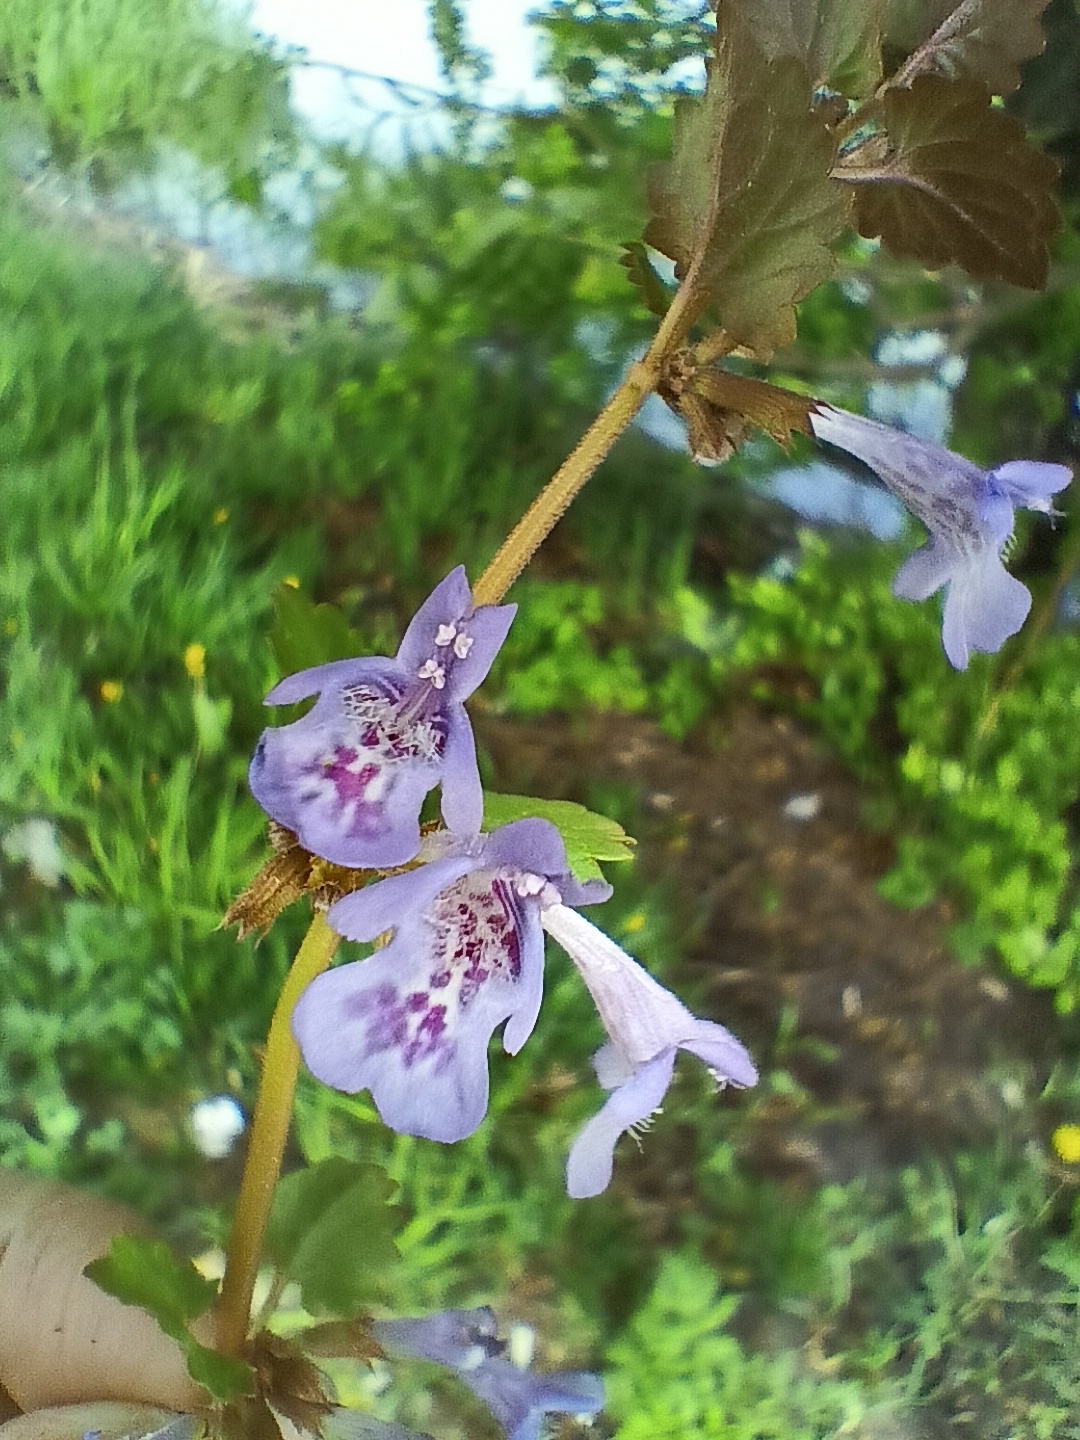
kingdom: Plantae
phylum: Tracheophyta
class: Magnoliopsida
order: Lamiales
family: Lamiaceae
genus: Glechoma
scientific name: Glechoma hederacea
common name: Ground ivy
